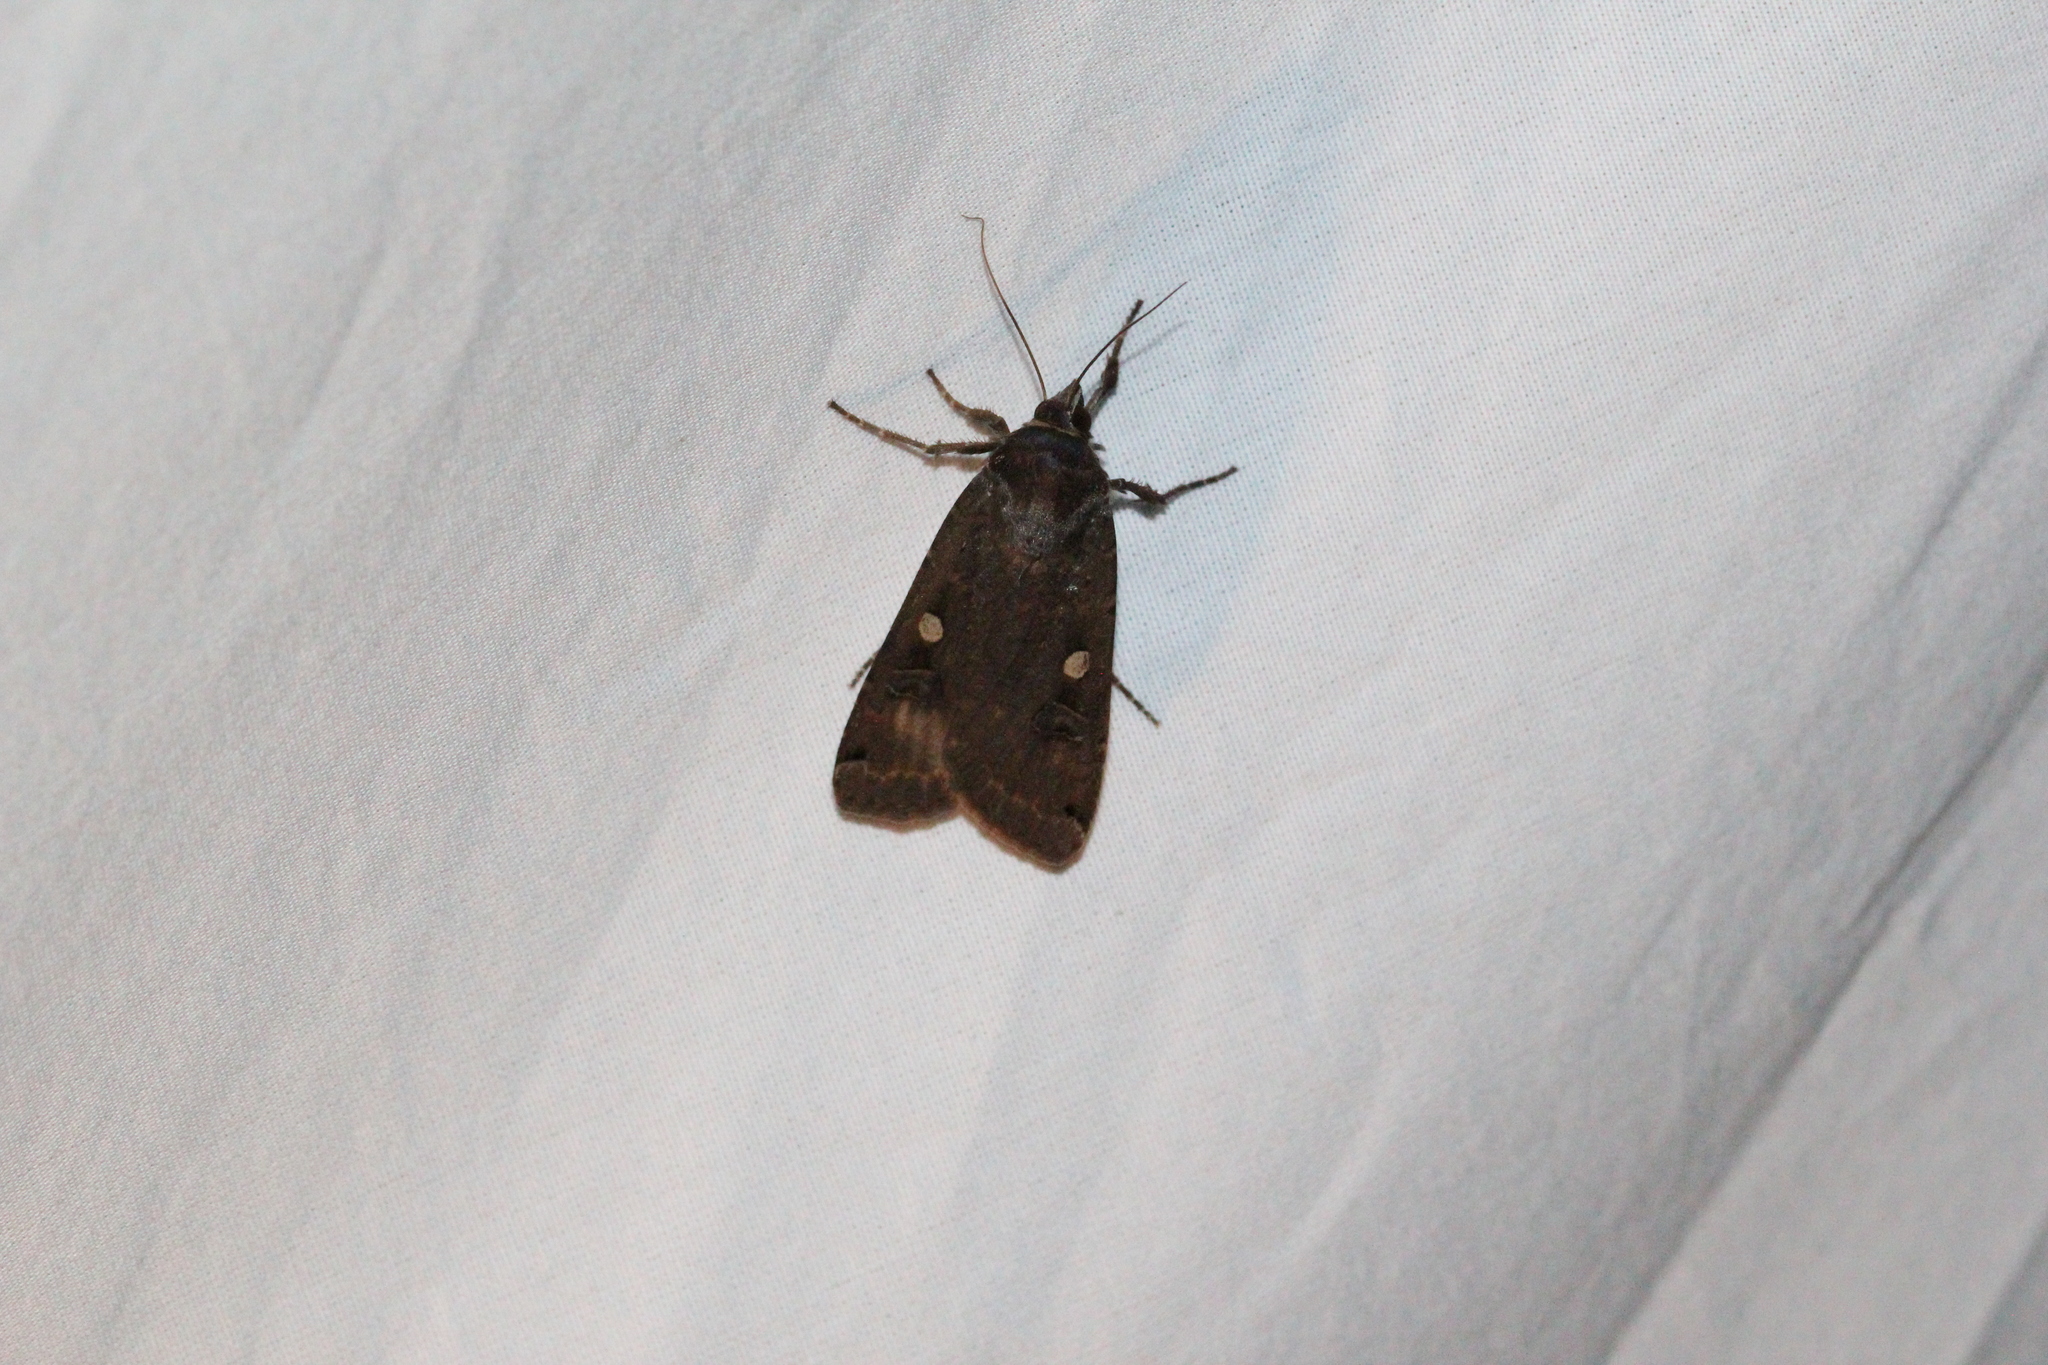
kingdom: Animalia
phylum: Arthropoda
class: Insecta
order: Lepidoptera
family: Noctuidae
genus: Noctua
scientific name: Noctua pronuba
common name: Large yellow underwing
